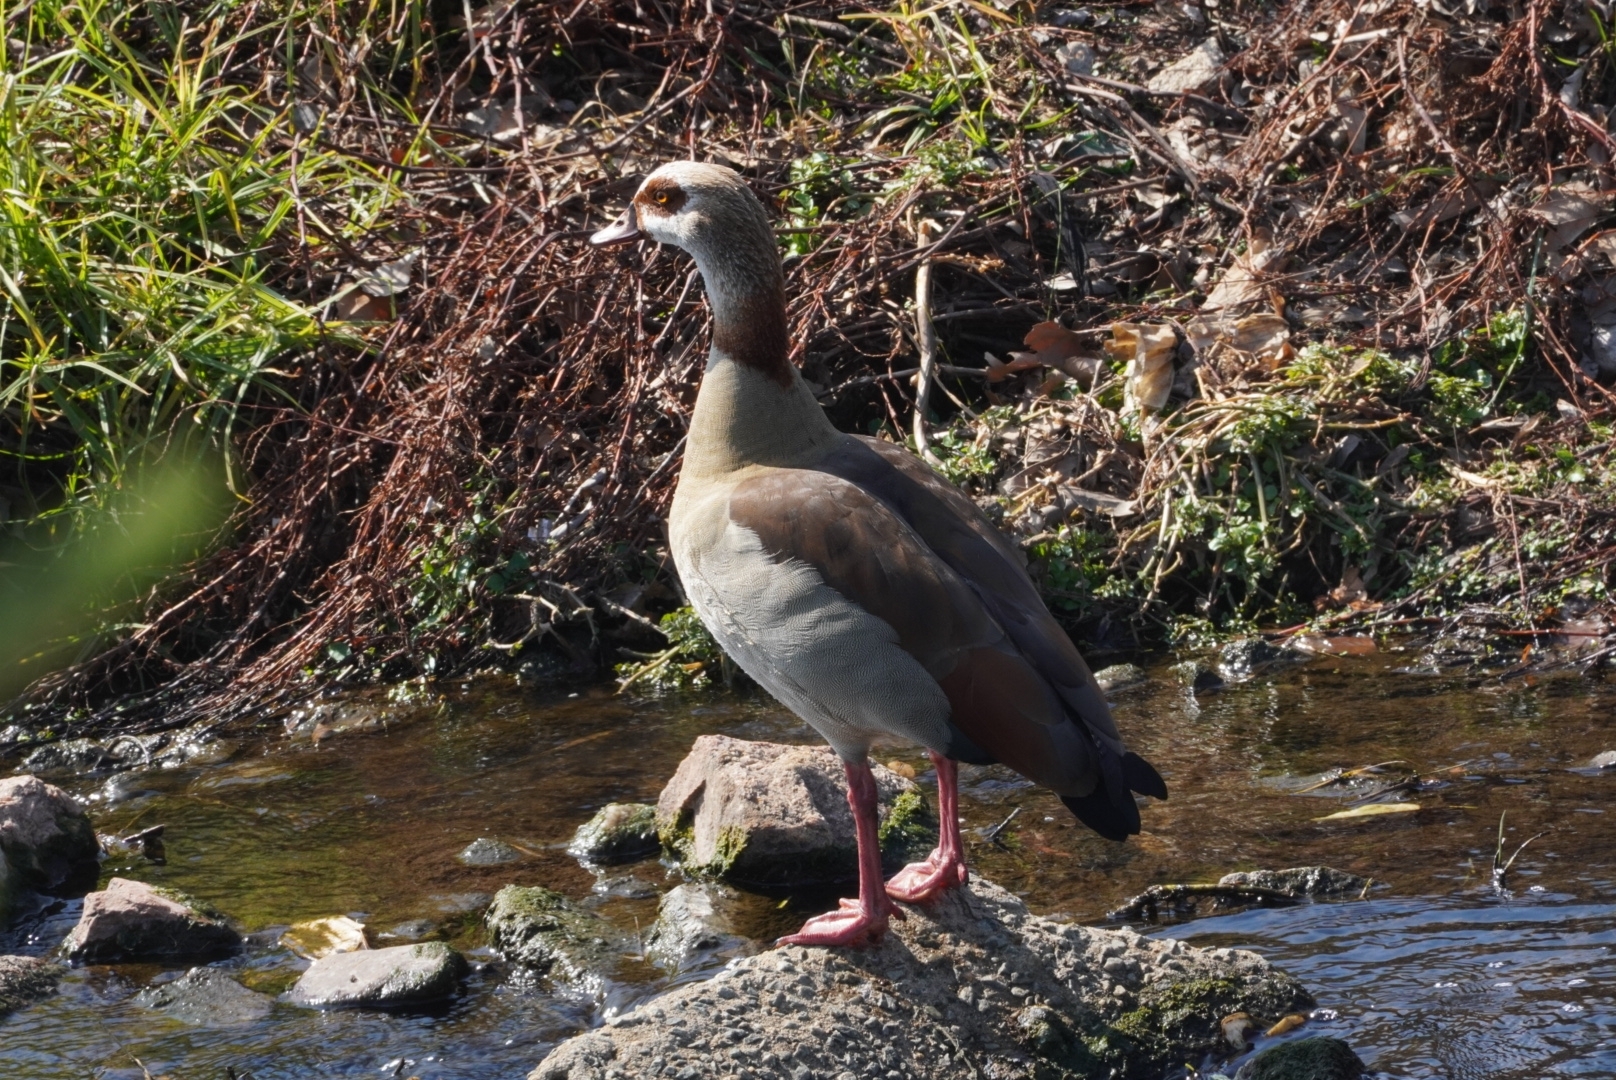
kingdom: Animalia
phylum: Chordata
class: Aves
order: Anseriformes
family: Anatidae
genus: Alopochen
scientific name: Alopochen aegyptiaca
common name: Egyptian goose
